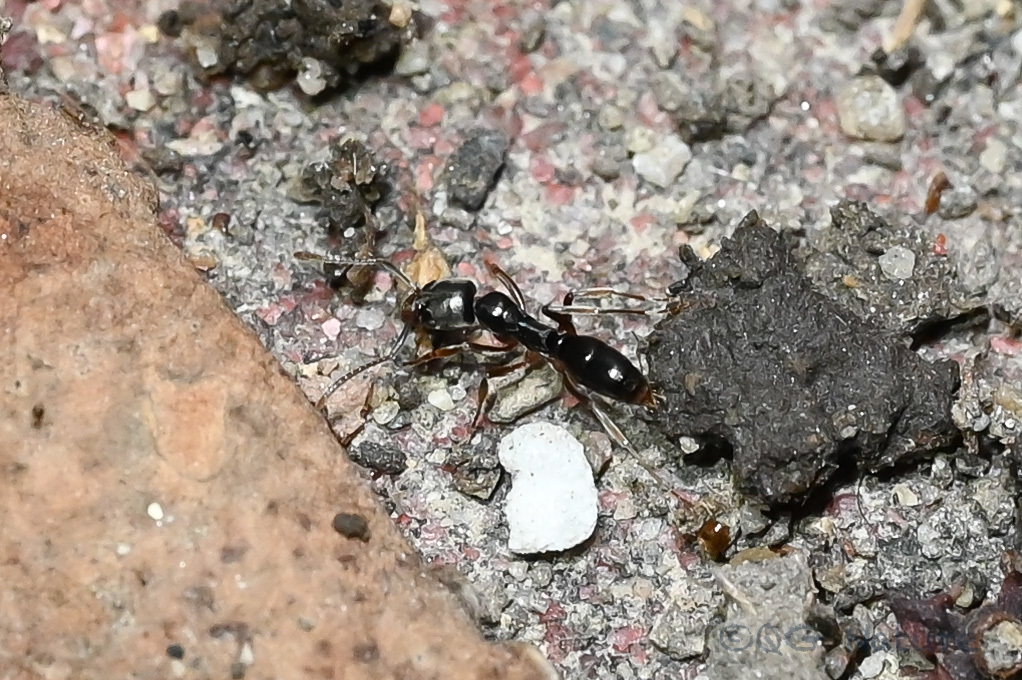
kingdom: Animalia
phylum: Arthropoda
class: Insecta
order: Hymenoptera
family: Formicidae
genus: Pachycondyla
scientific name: Pachycondyla chinensis
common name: Asian needle ant
